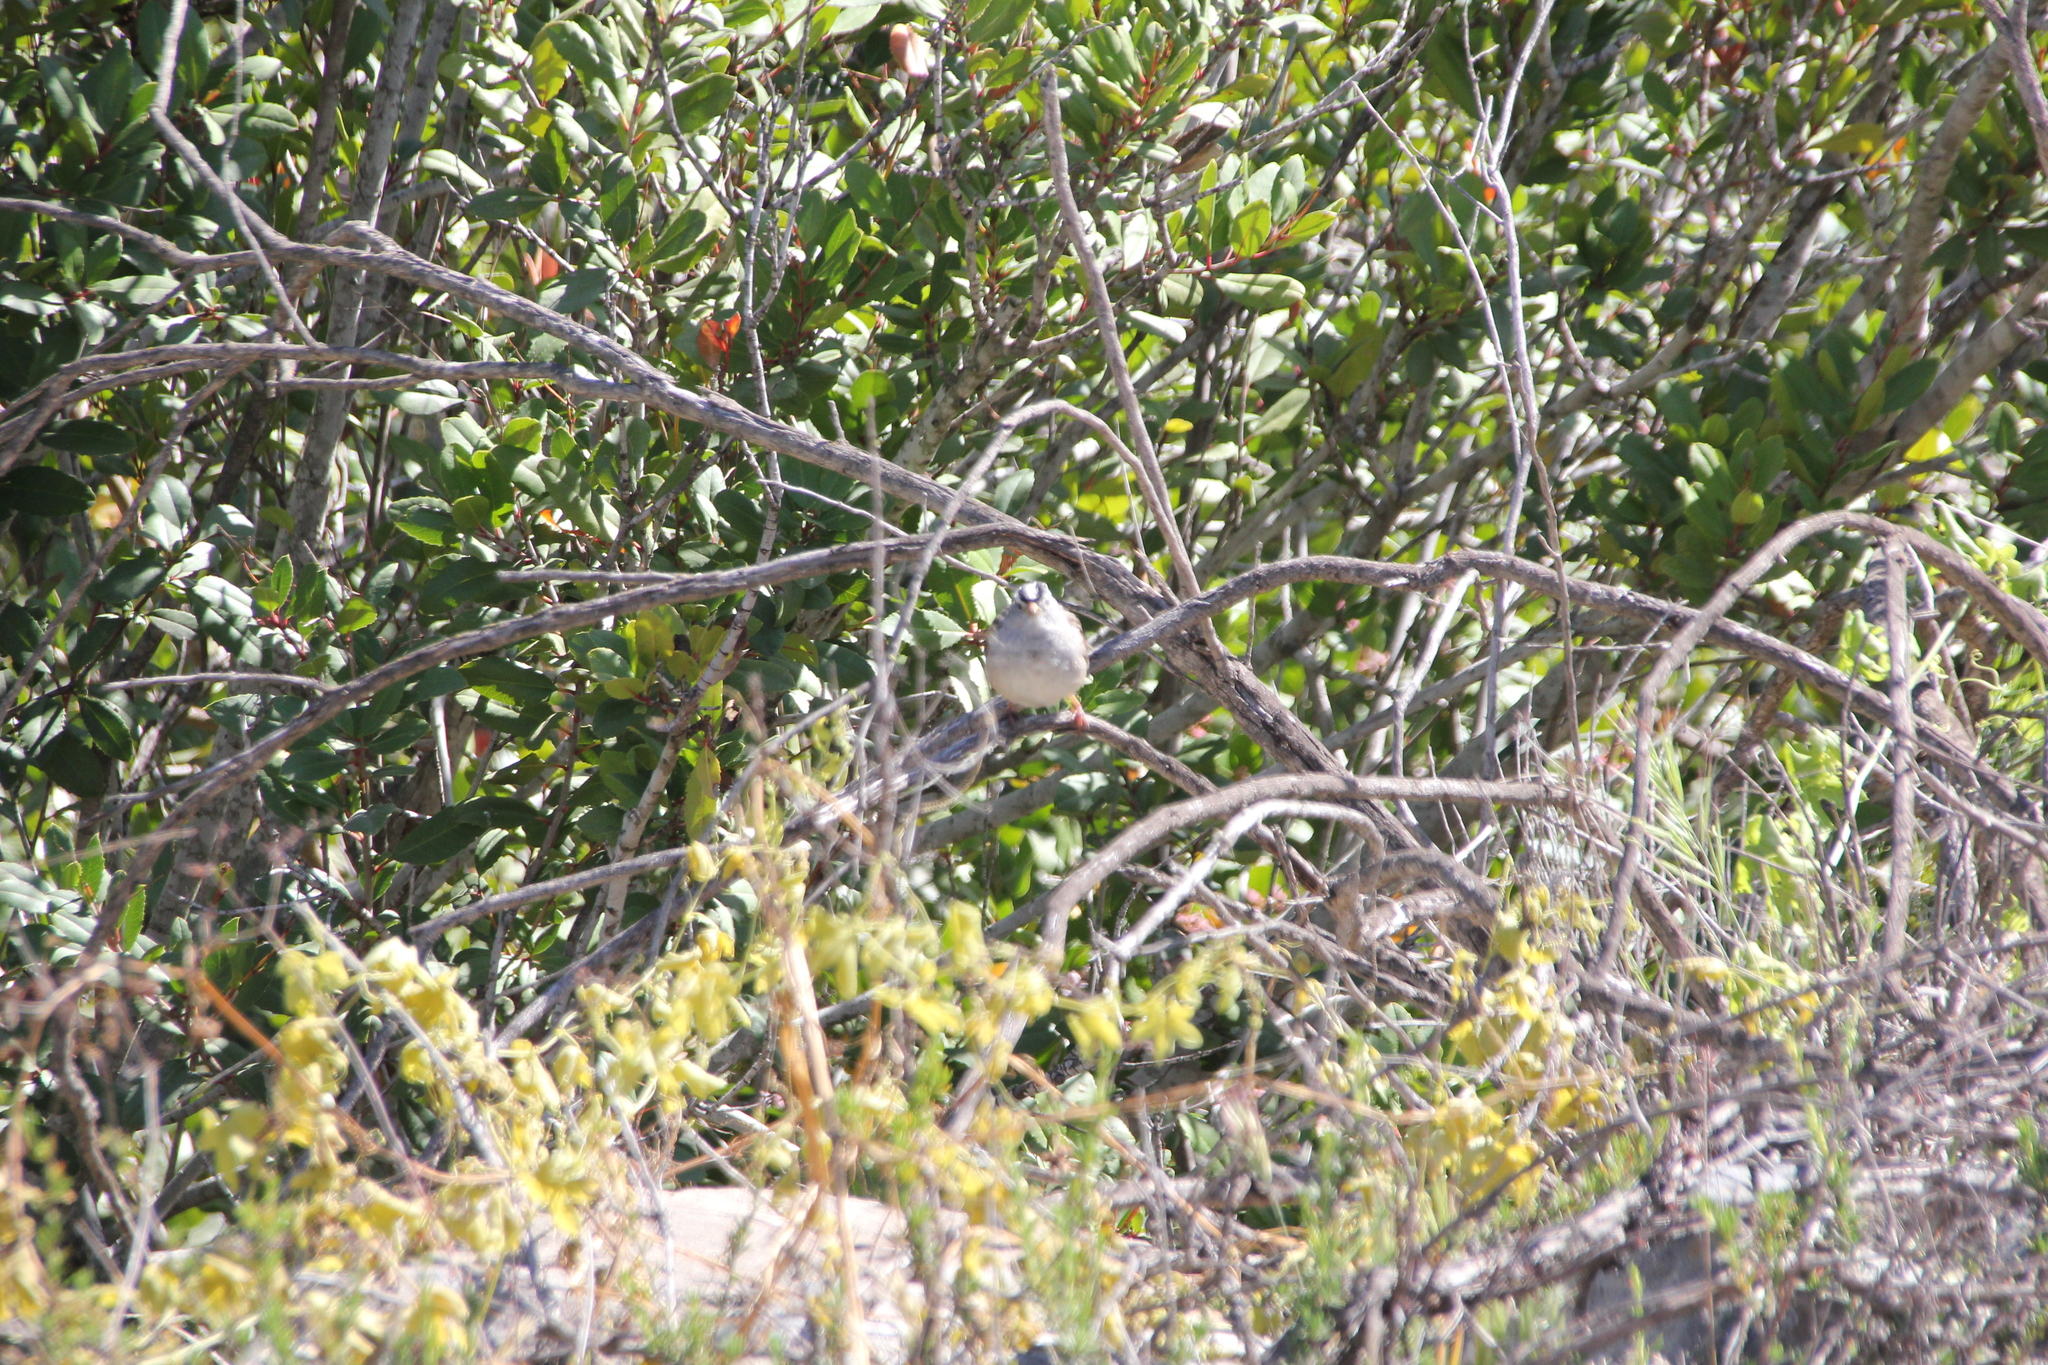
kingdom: Animalia
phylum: Chordata
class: Aves
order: Passeriformes
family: Passerellidae
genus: Zonotrichia
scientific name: Zonotrichia leucophrys
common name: White-crowned sparrow
